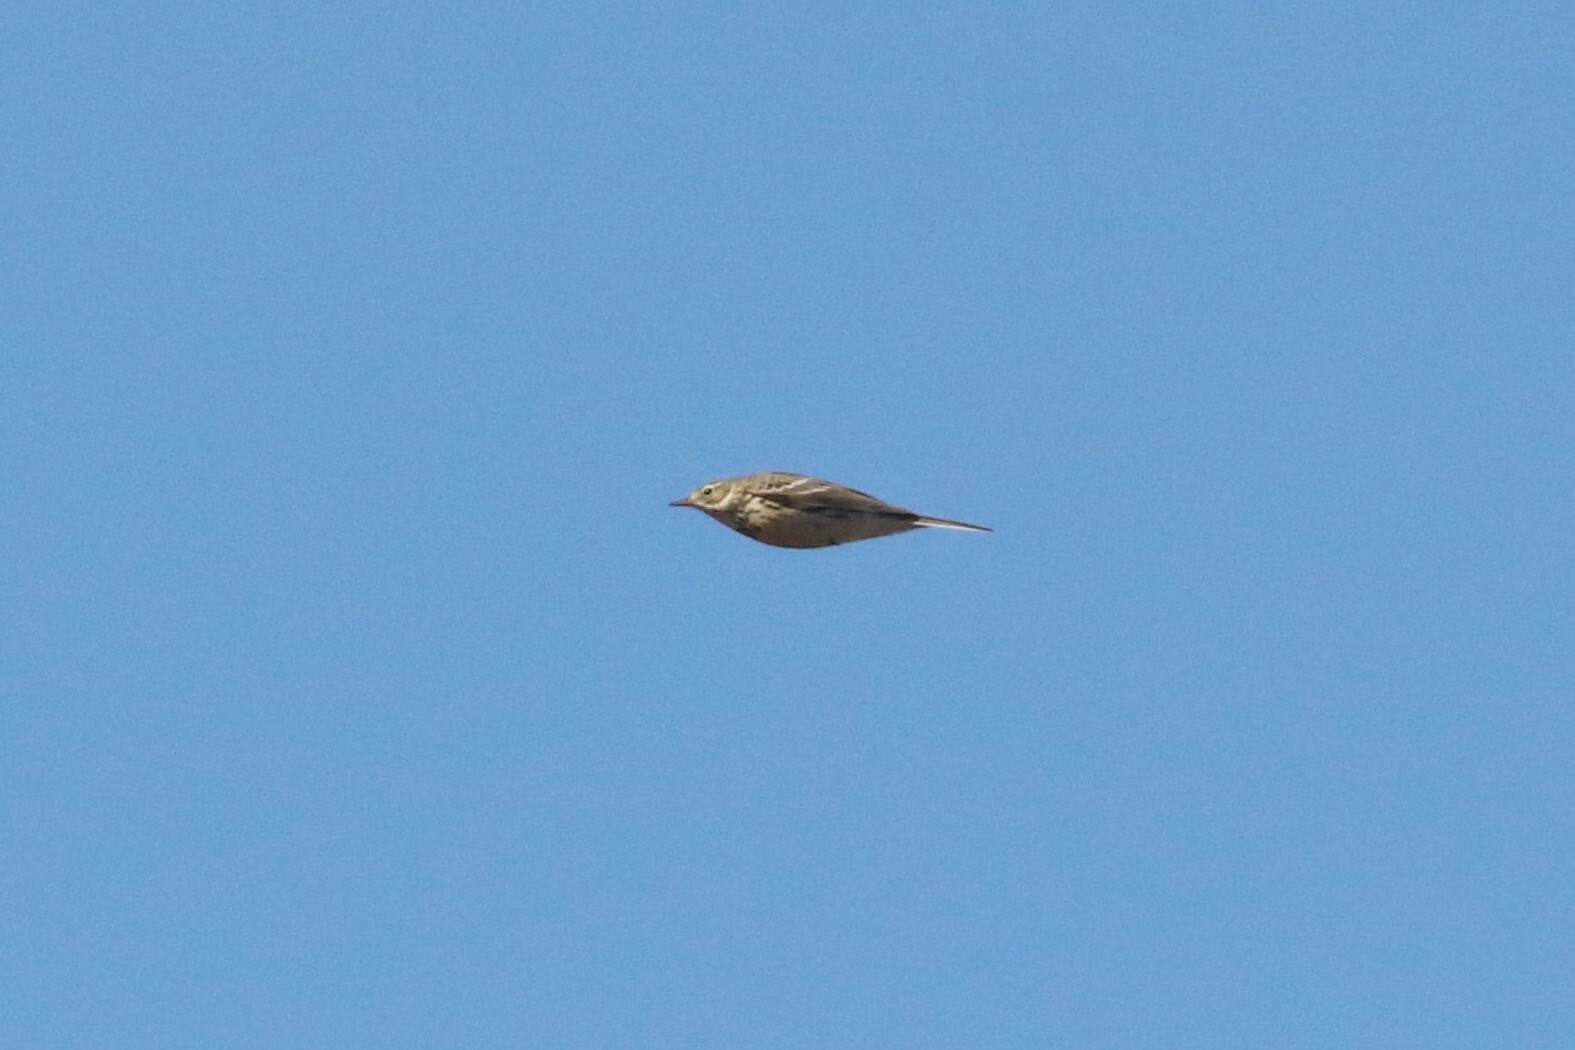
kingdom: Animalia
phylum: Chordata
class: Aves
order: Passeriformes
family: Motacillidae
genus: Anthus
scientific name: Anthus pratensis
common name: Meadow pipit
